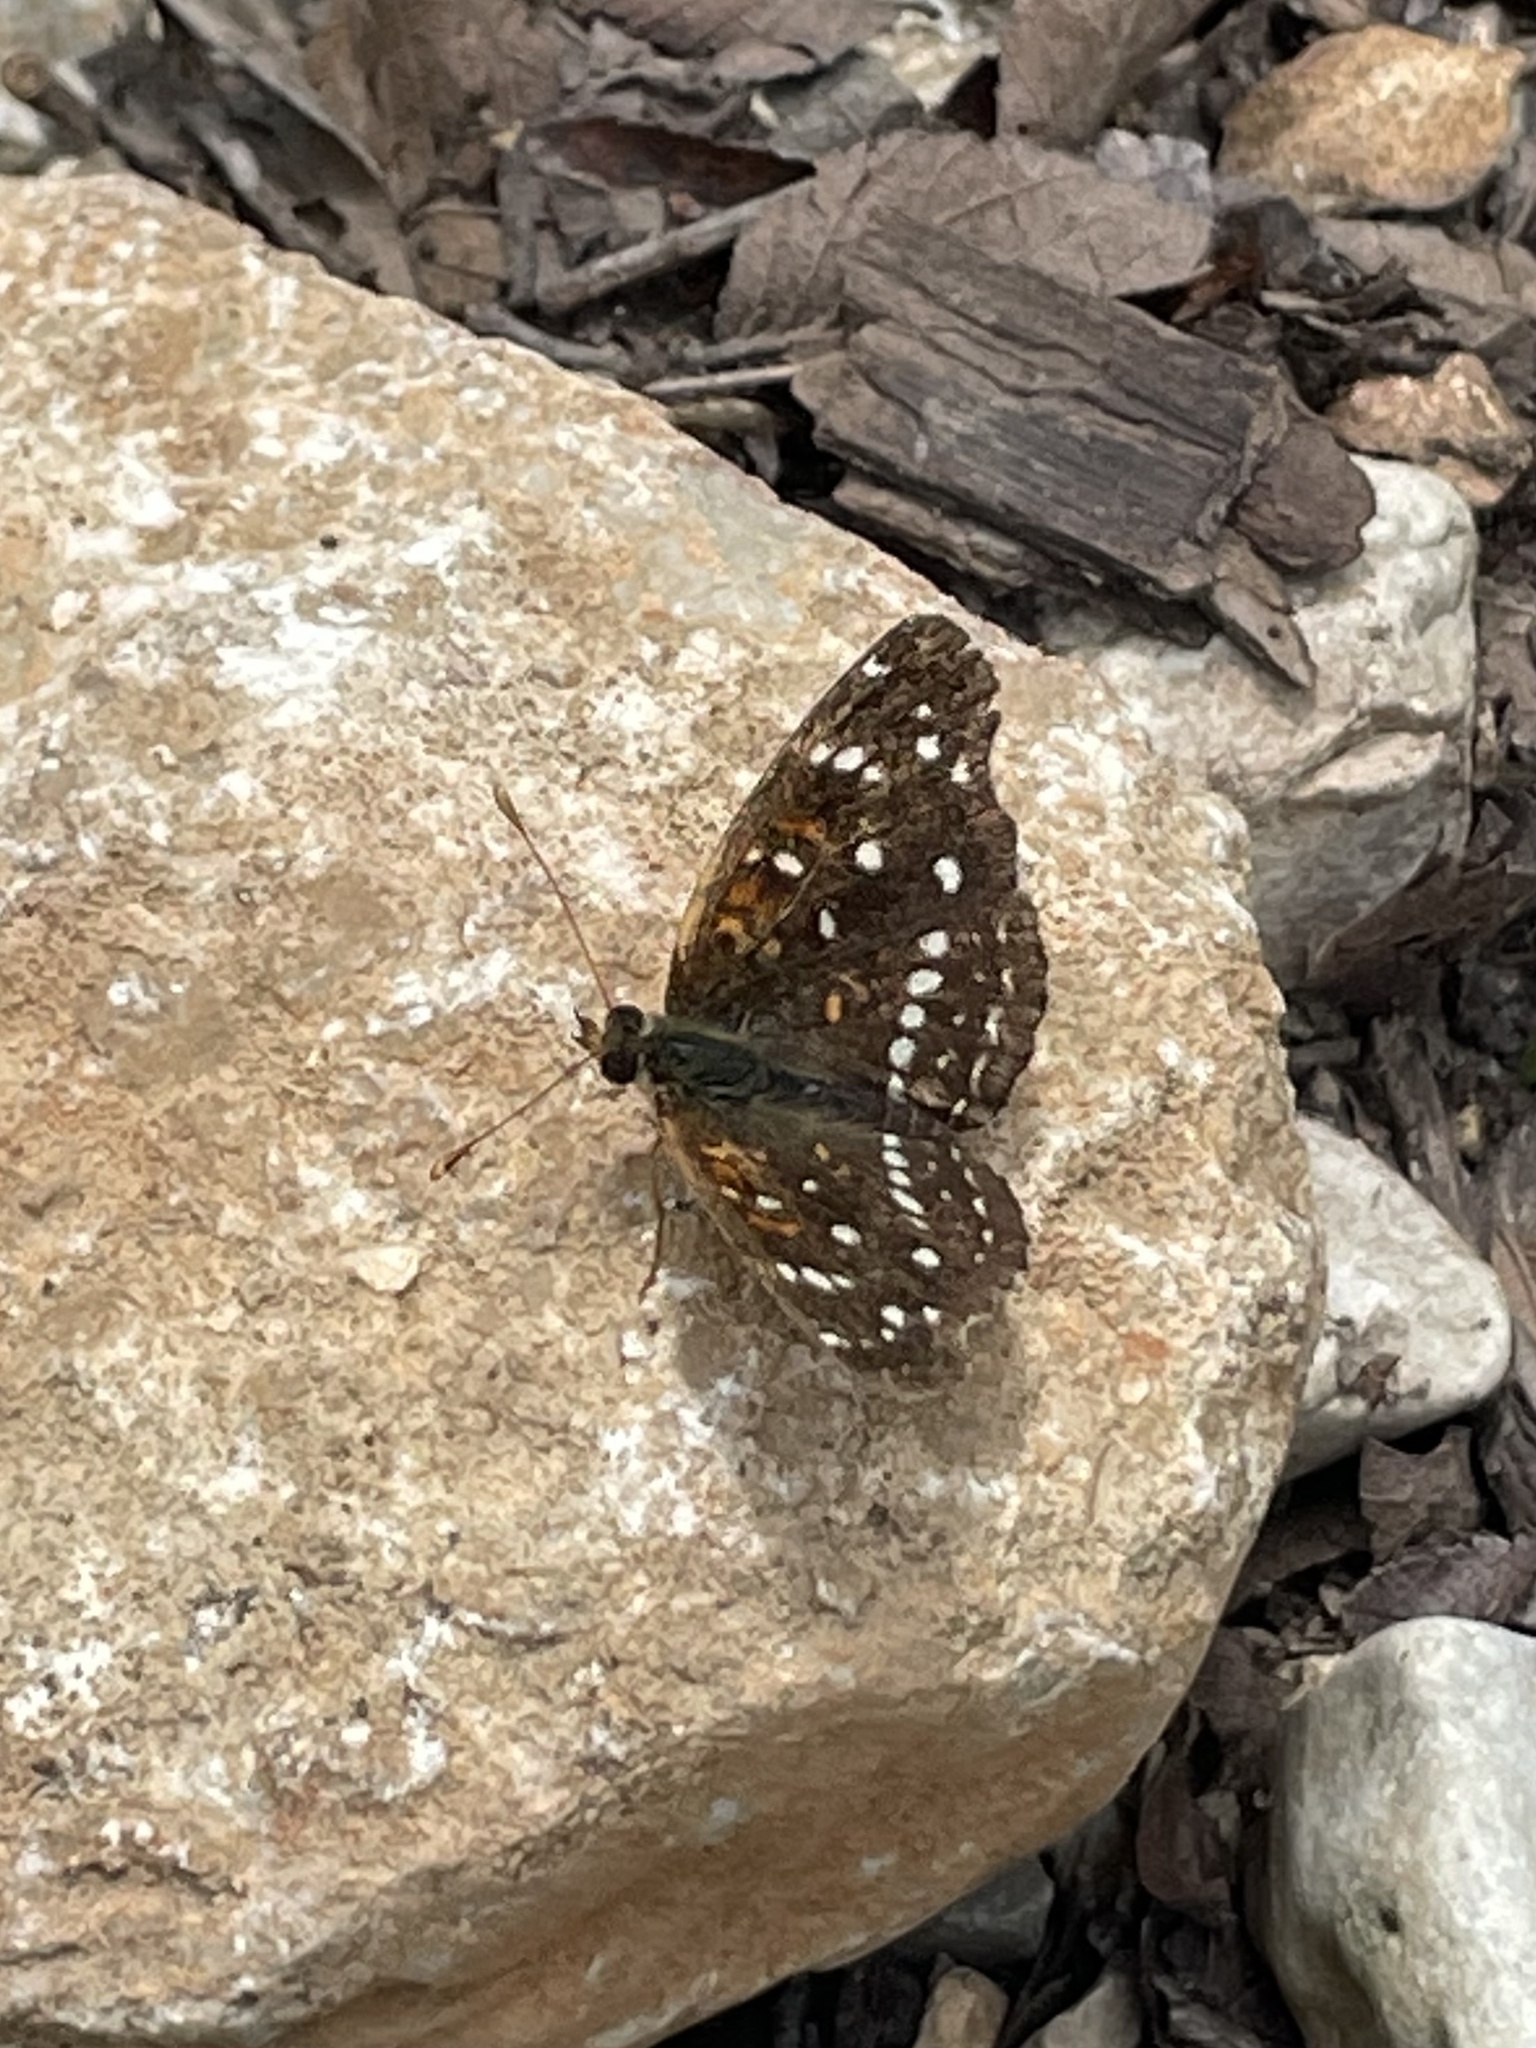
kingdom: Animalia
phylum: Arthropoda
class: Insecta
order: Lepidoptera
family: Nymphalidae
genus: Anthanassa
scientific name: Anthanassa texana
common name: Texan crescent
